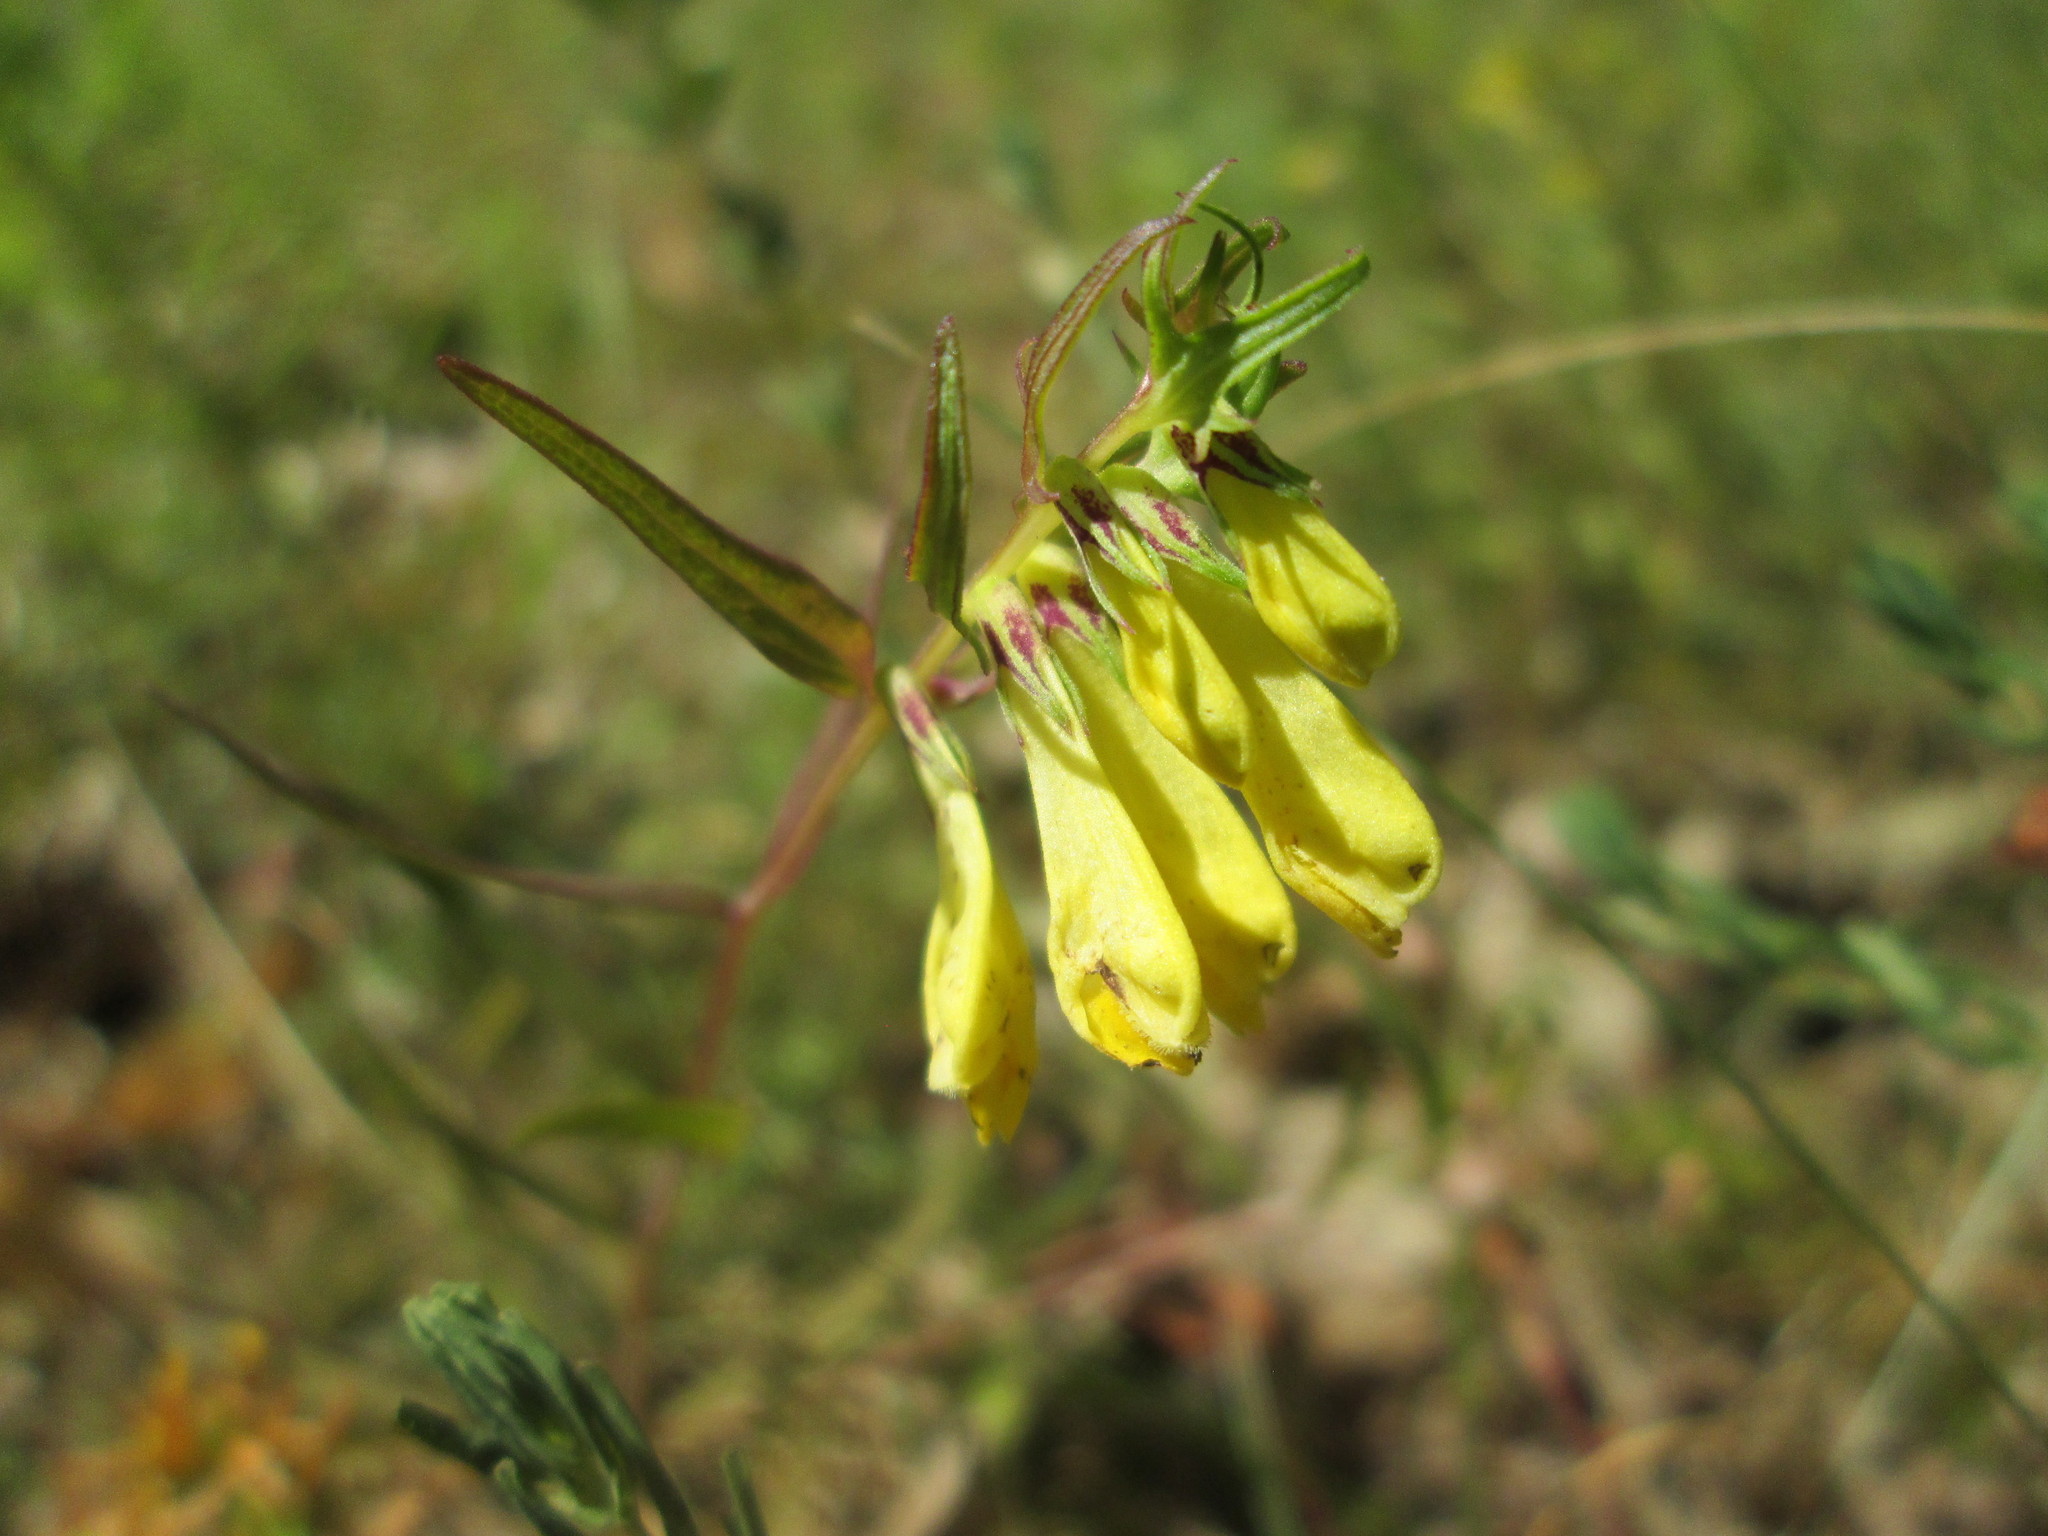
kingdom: Plantae
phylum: Tracheophyta
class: Magnoliopsida
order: Lamiales
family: Orobanchaceae
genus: Melampyrum
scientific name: Melampyrum pratense
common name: Common cow-wheat
